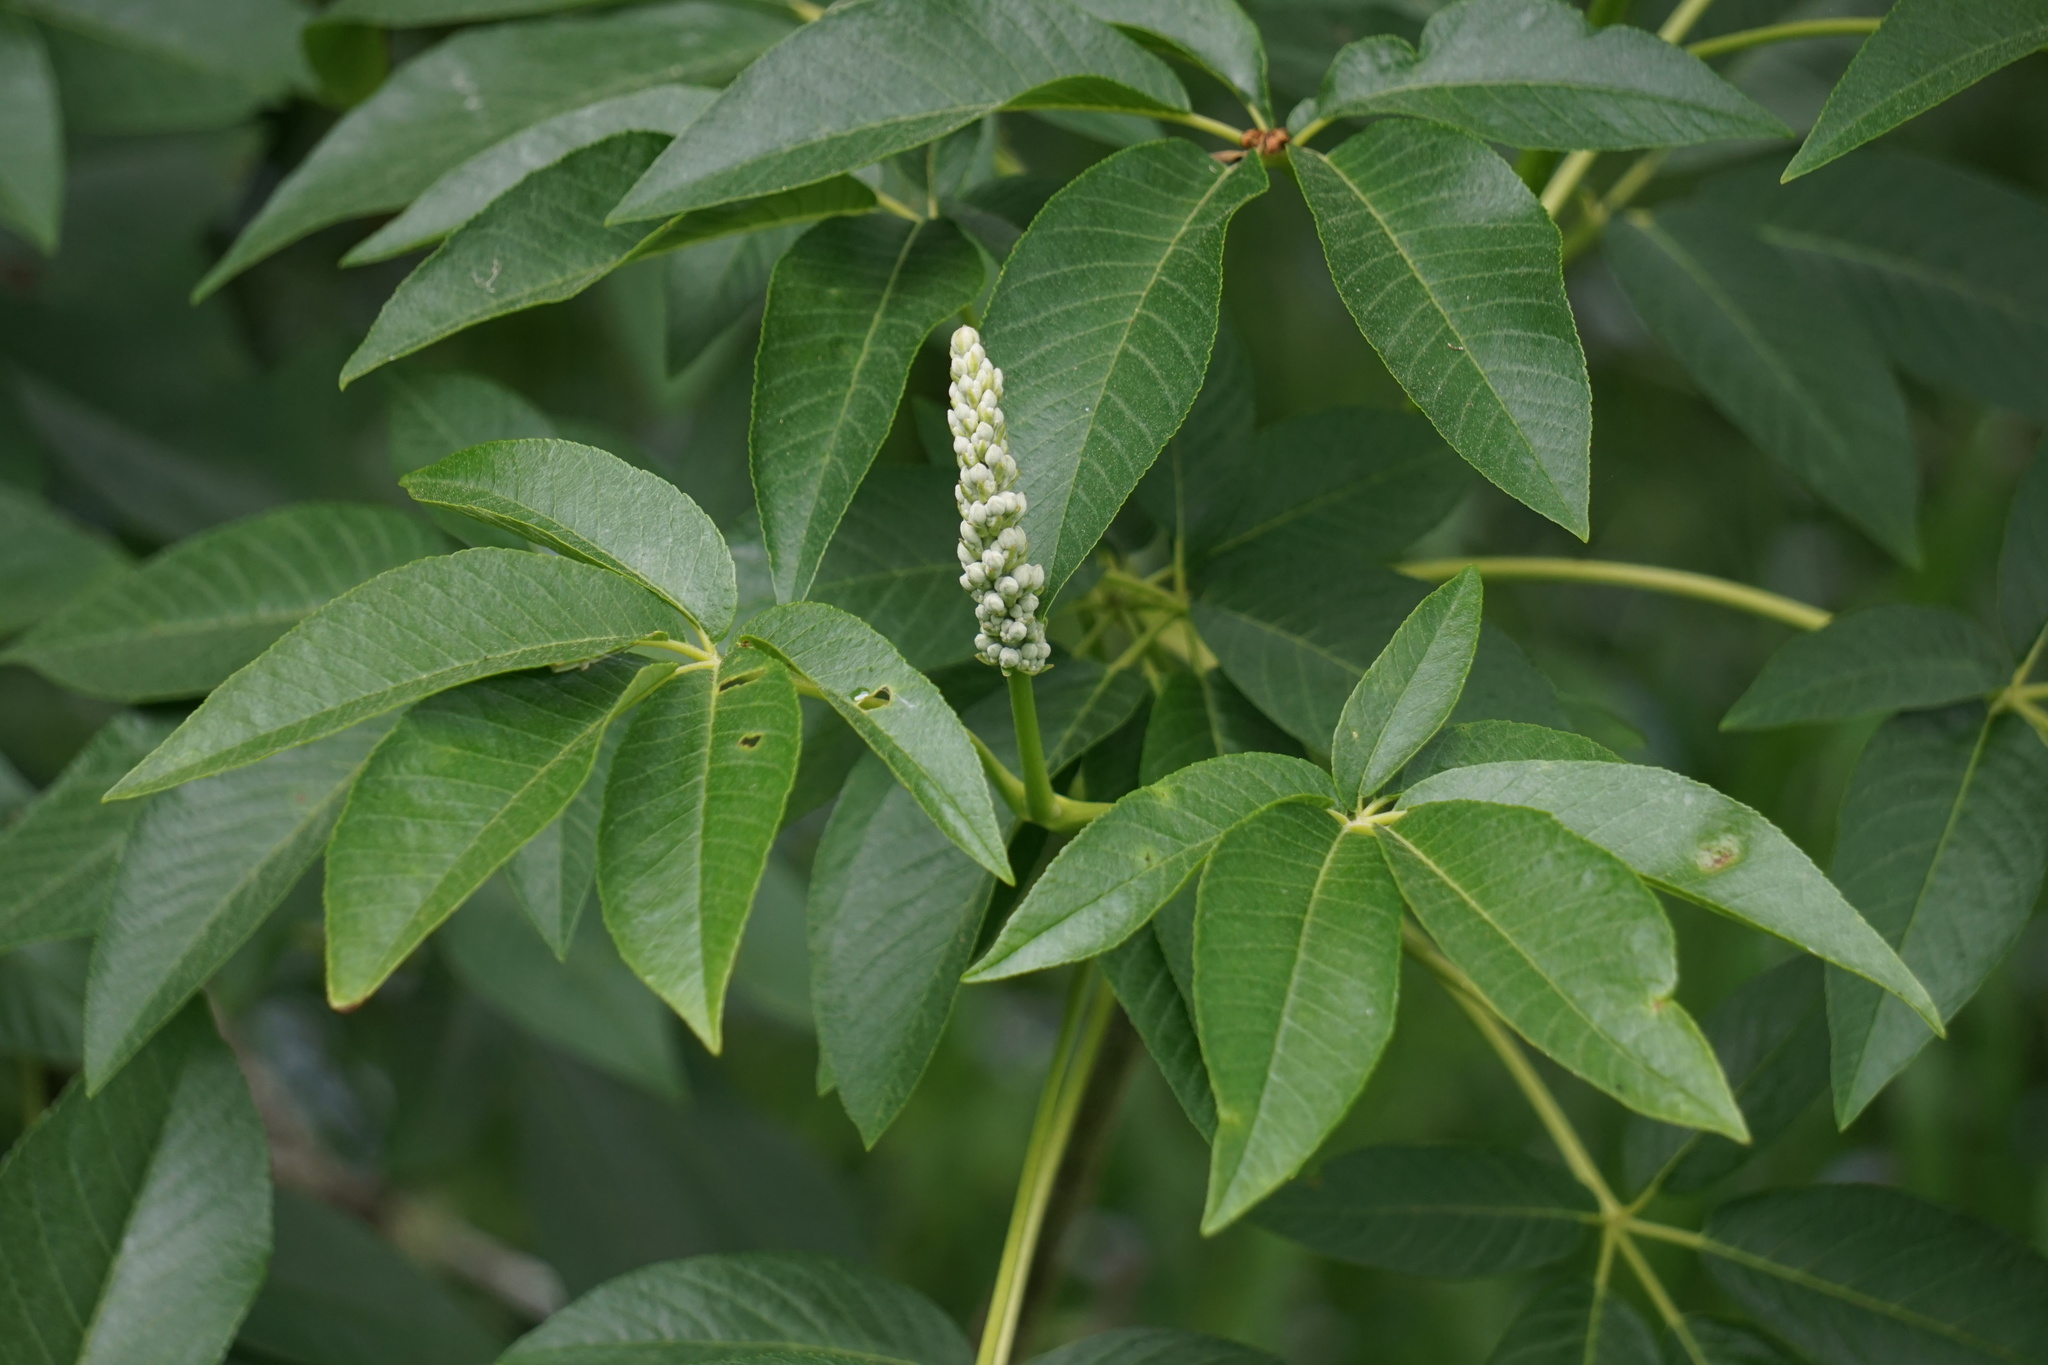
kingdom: Plantae
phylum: Tracheophyta
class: Magnoliopsida
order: Sapindales
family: Sapindaceae
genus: Aesculus
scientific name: Aesculus californica
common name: California buckeye
